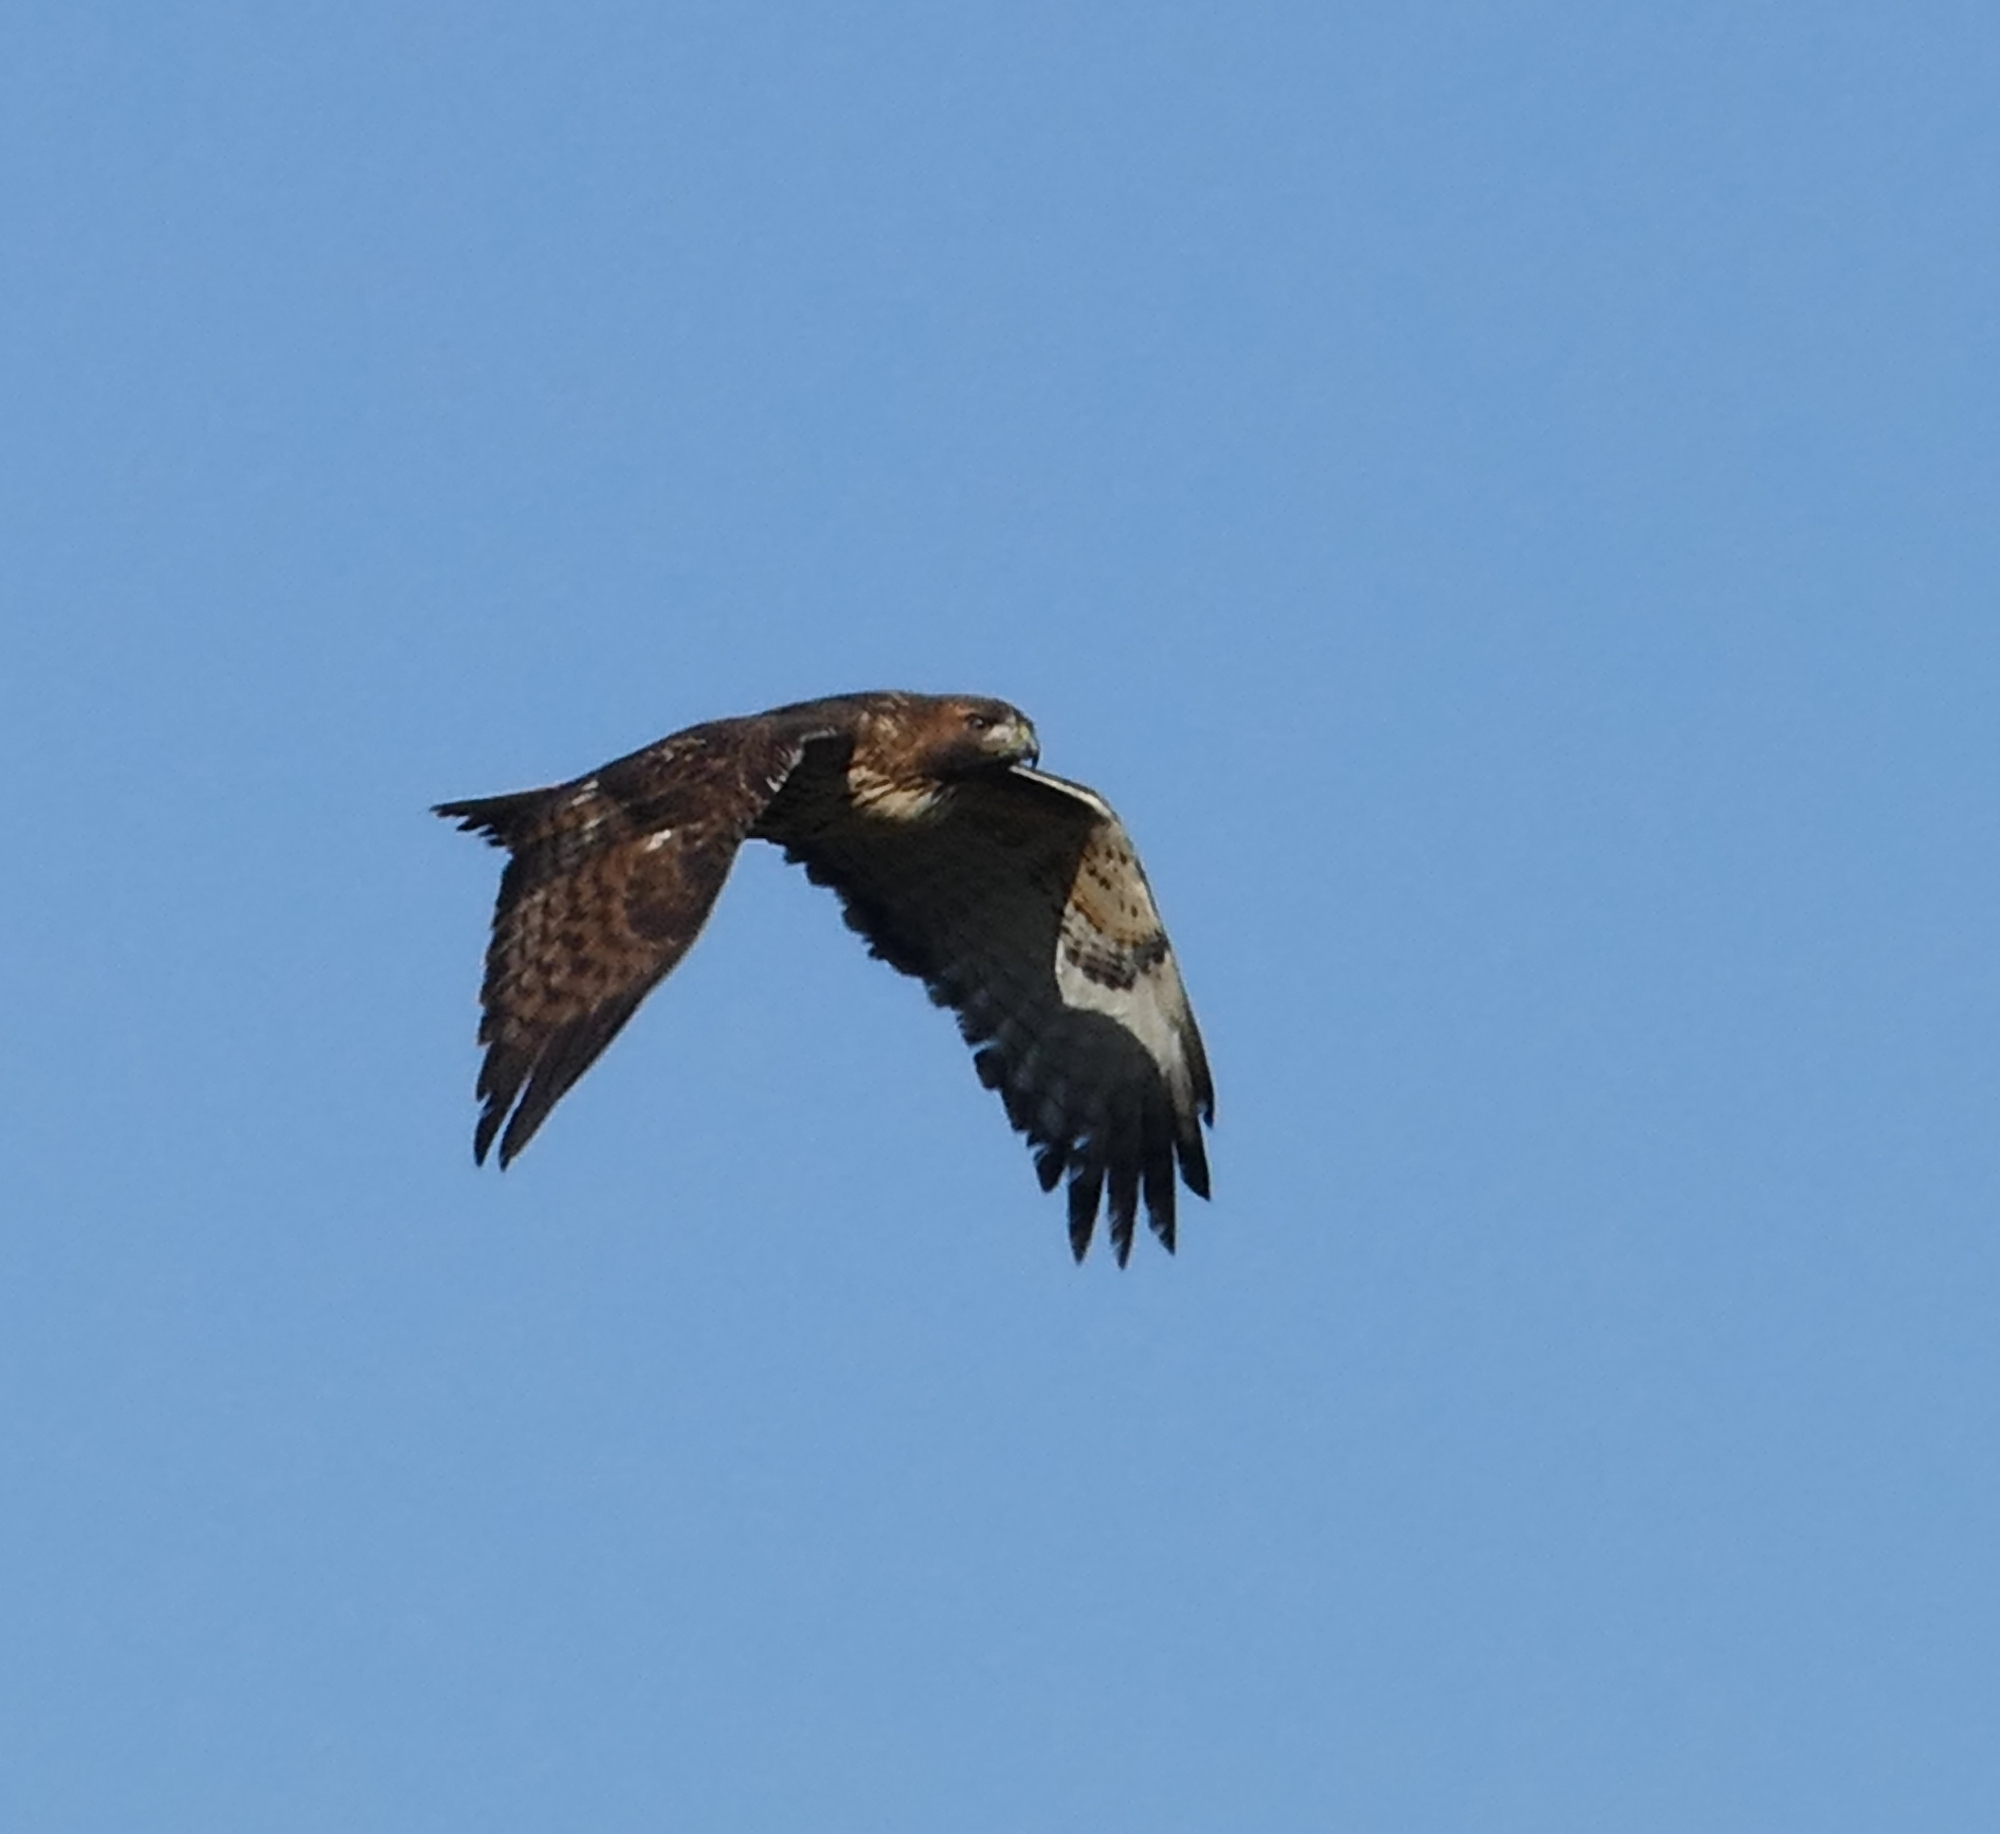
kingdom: Animalia
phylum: Chordata
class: Aves
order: Accipitriformes
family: Accipitridae
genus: Buteo
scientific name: Buteo jamaicensis
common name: Red-tailed hawk
